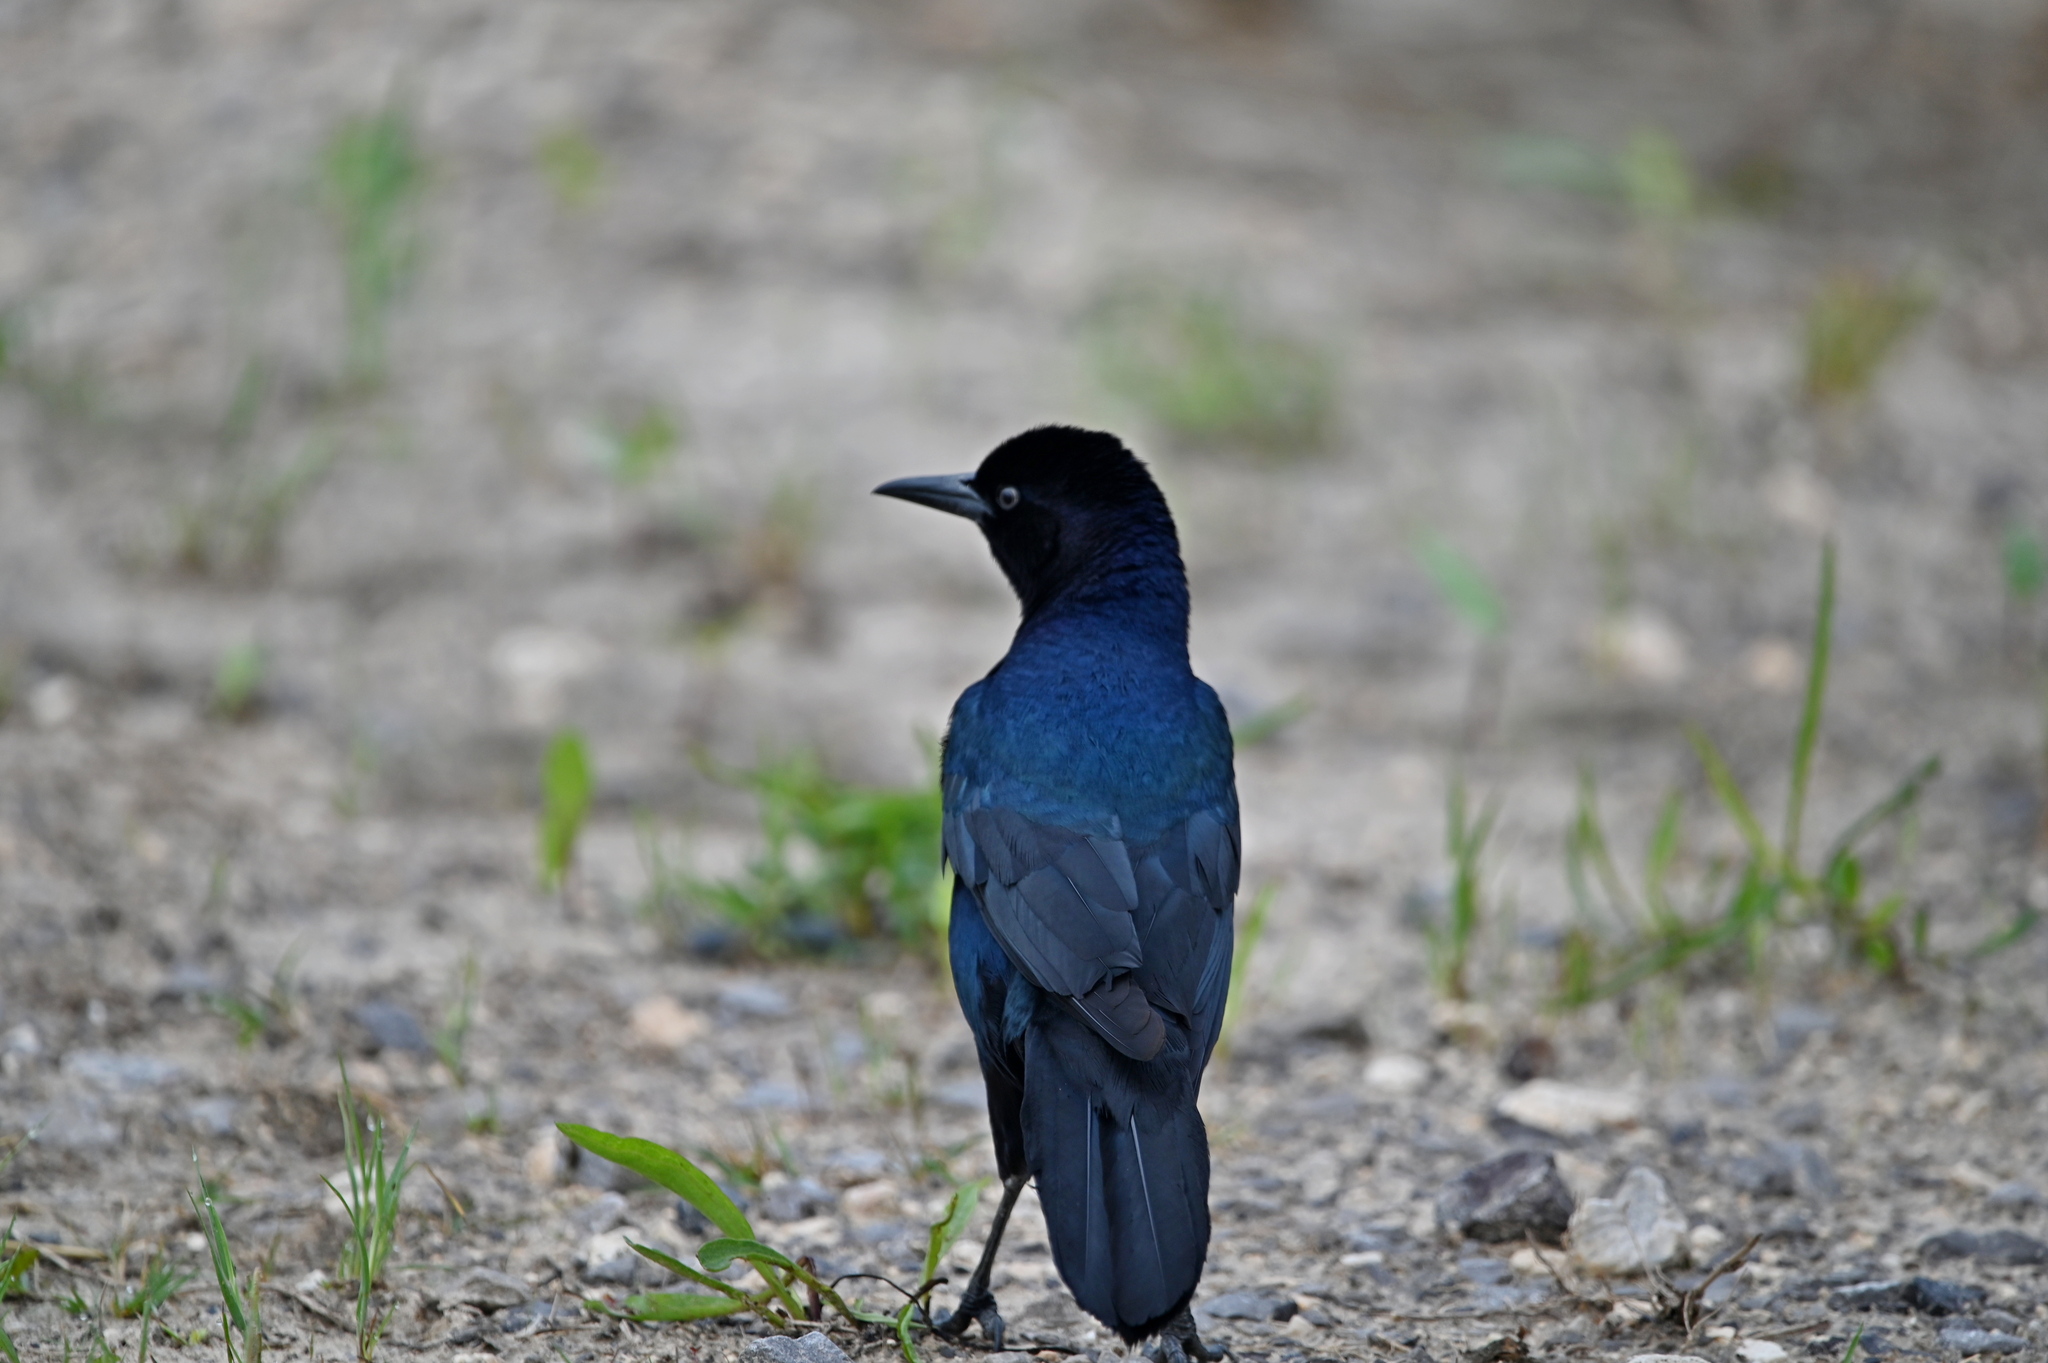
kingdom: Animalia
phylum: Chordata
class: Aves
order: Passeriformes
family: Icteridae
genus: Quiscalus
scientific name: Quiscalus major
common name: Boat-tailed grackle
